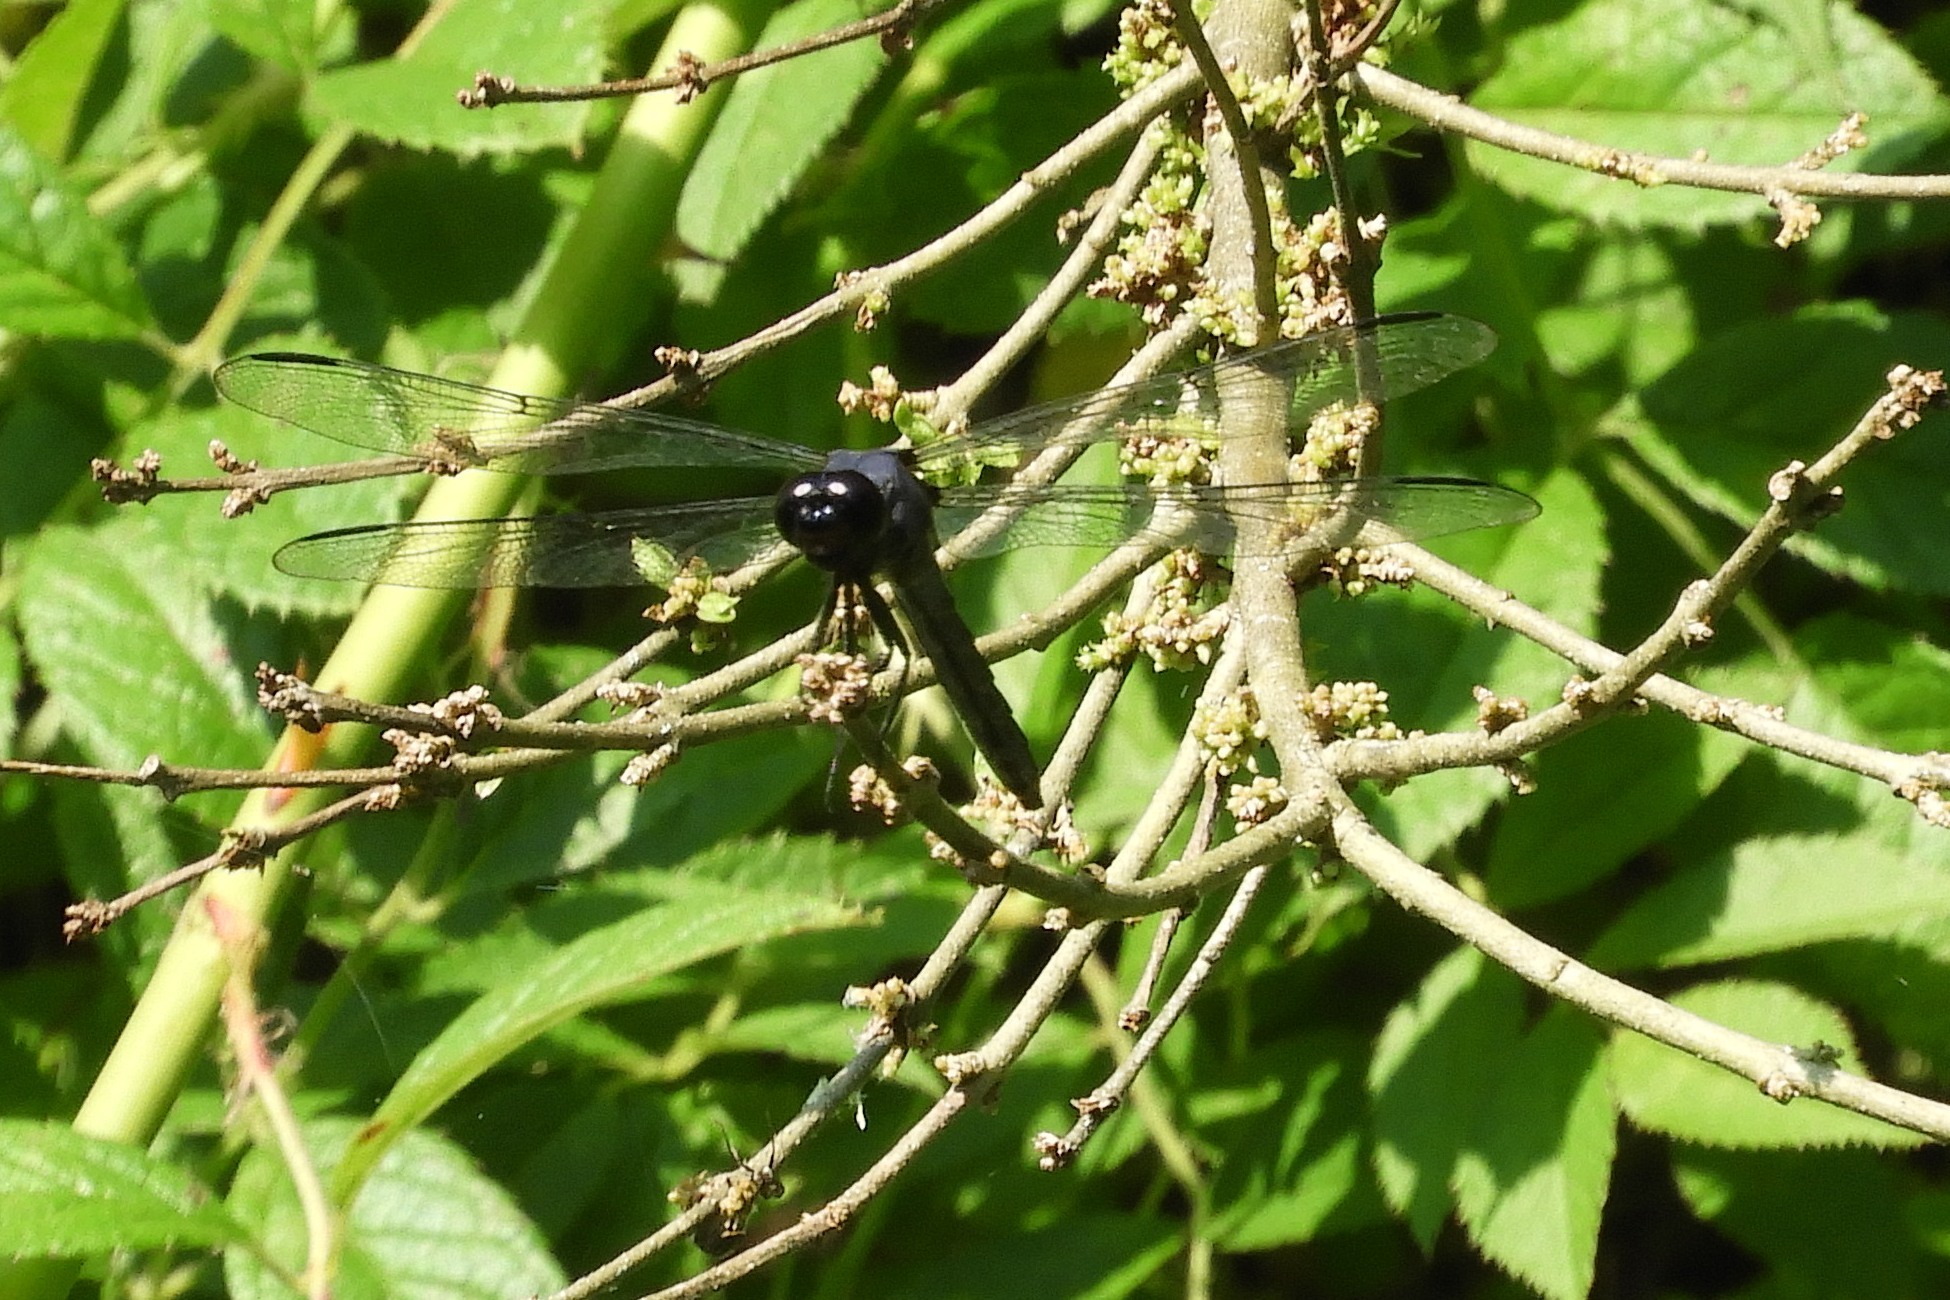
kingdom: Animalia
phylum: Arthropoda
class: Insecta
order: Odonata
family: Libellulidae
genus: Libellula
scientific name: Libellula incesta
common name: Slaty skimmer
